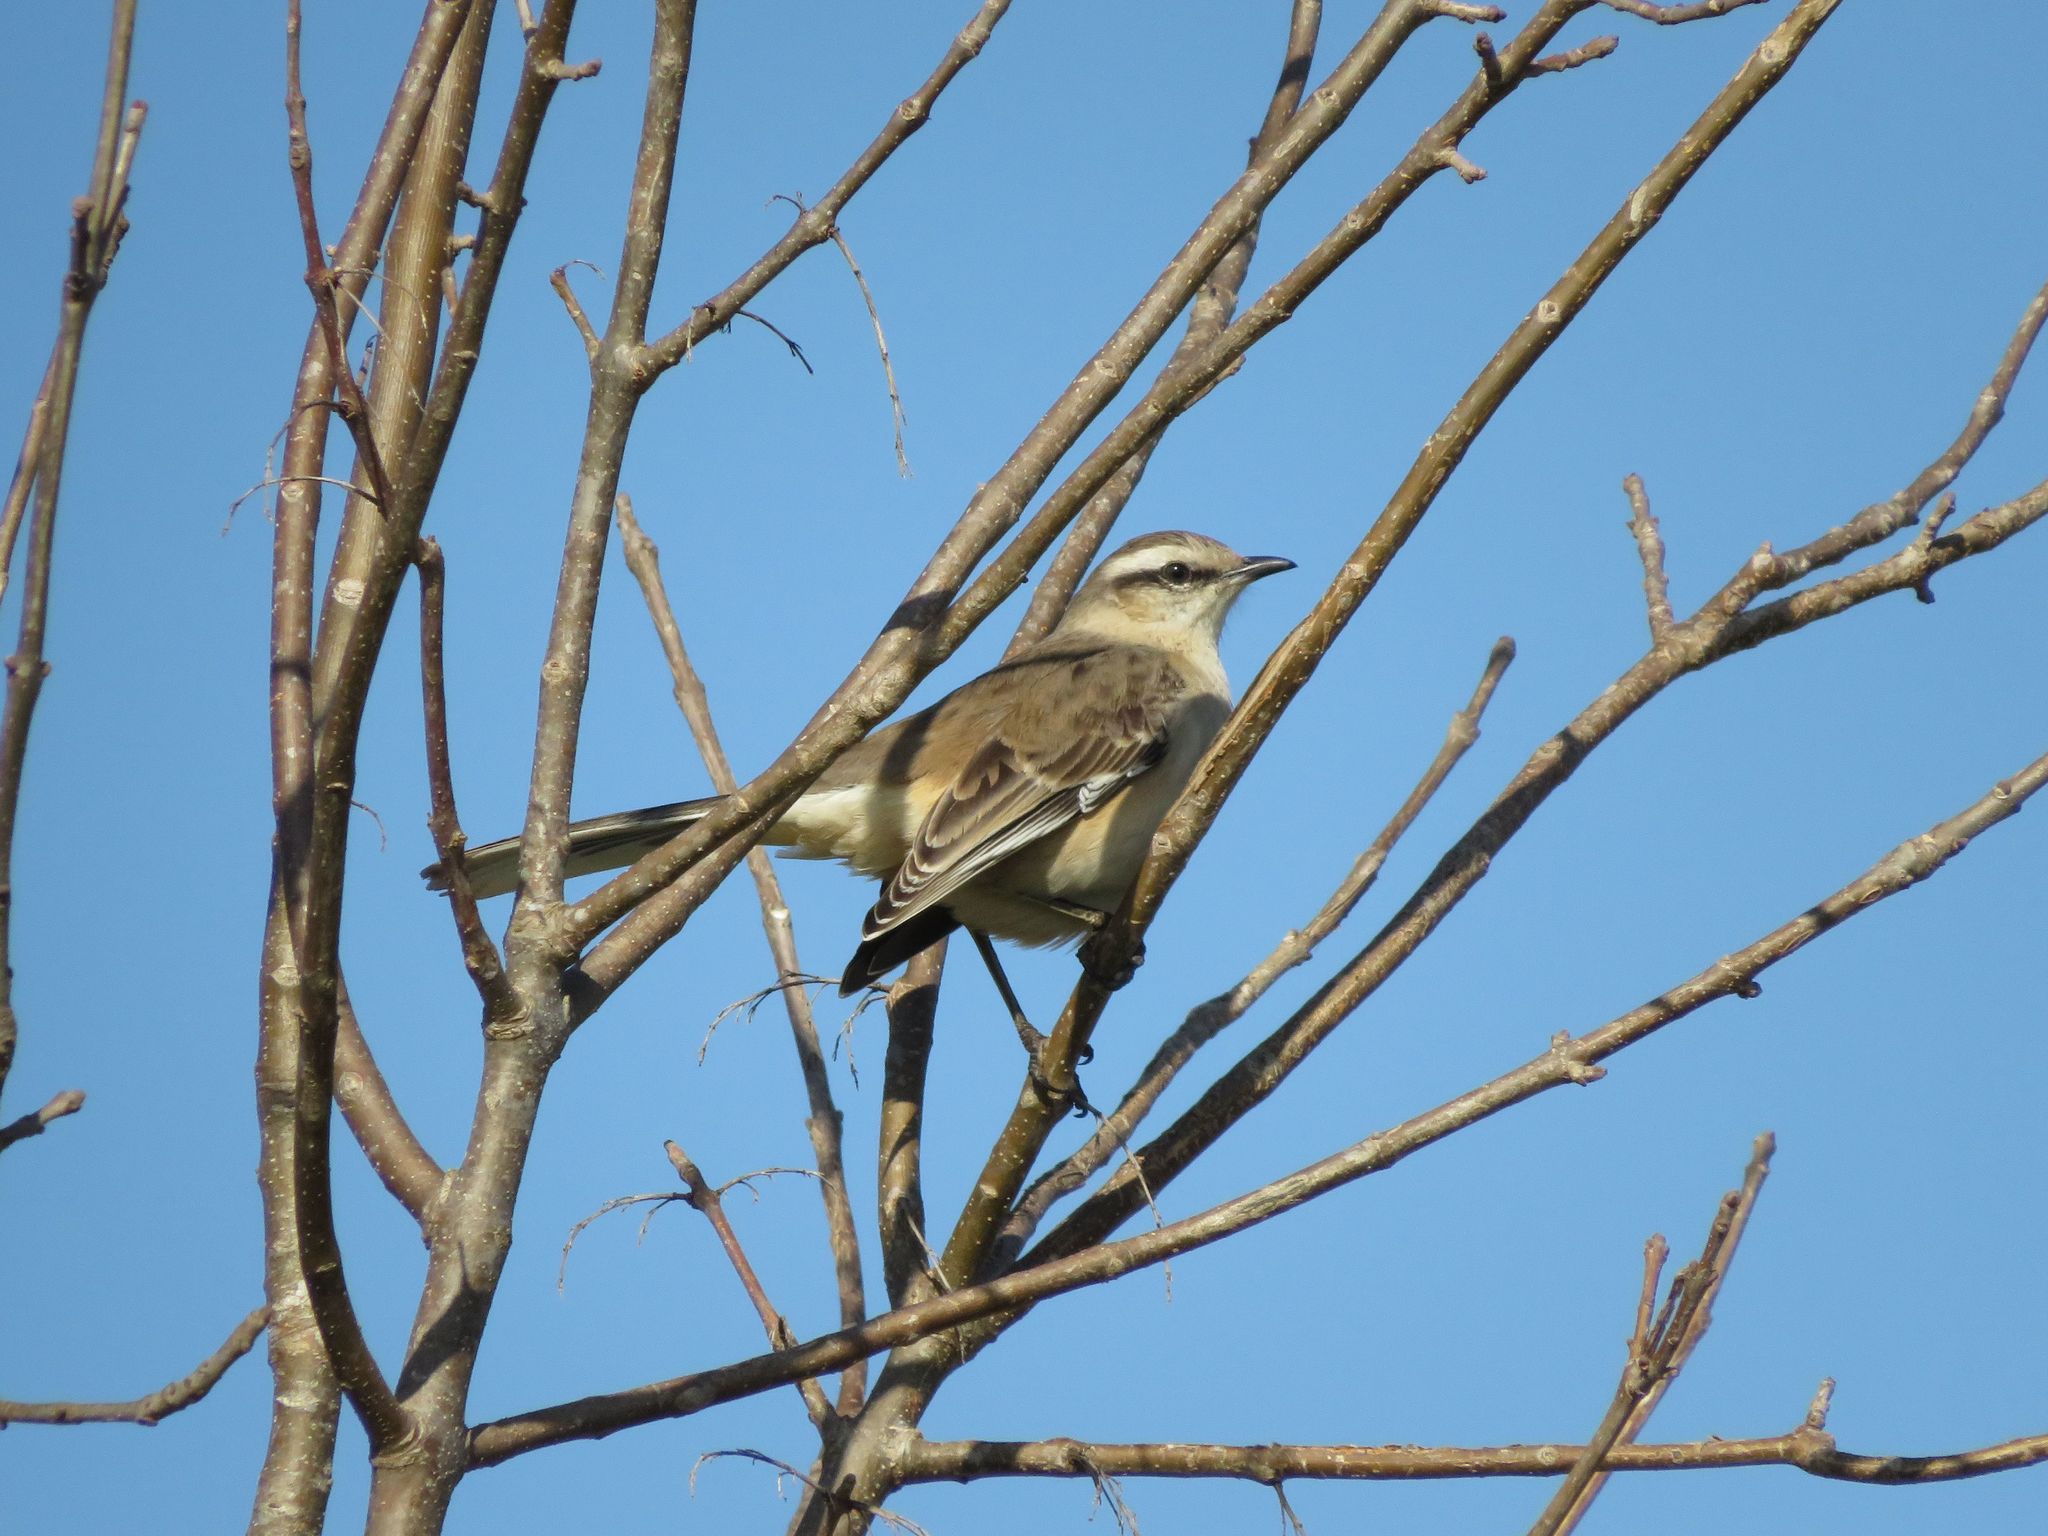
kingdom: Animalia
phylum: Chordata
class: Aves
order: Passeriformes
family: Mimidae
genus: Mimus
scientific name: Mimus saturninus
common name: Chalk-browed mockingbird
